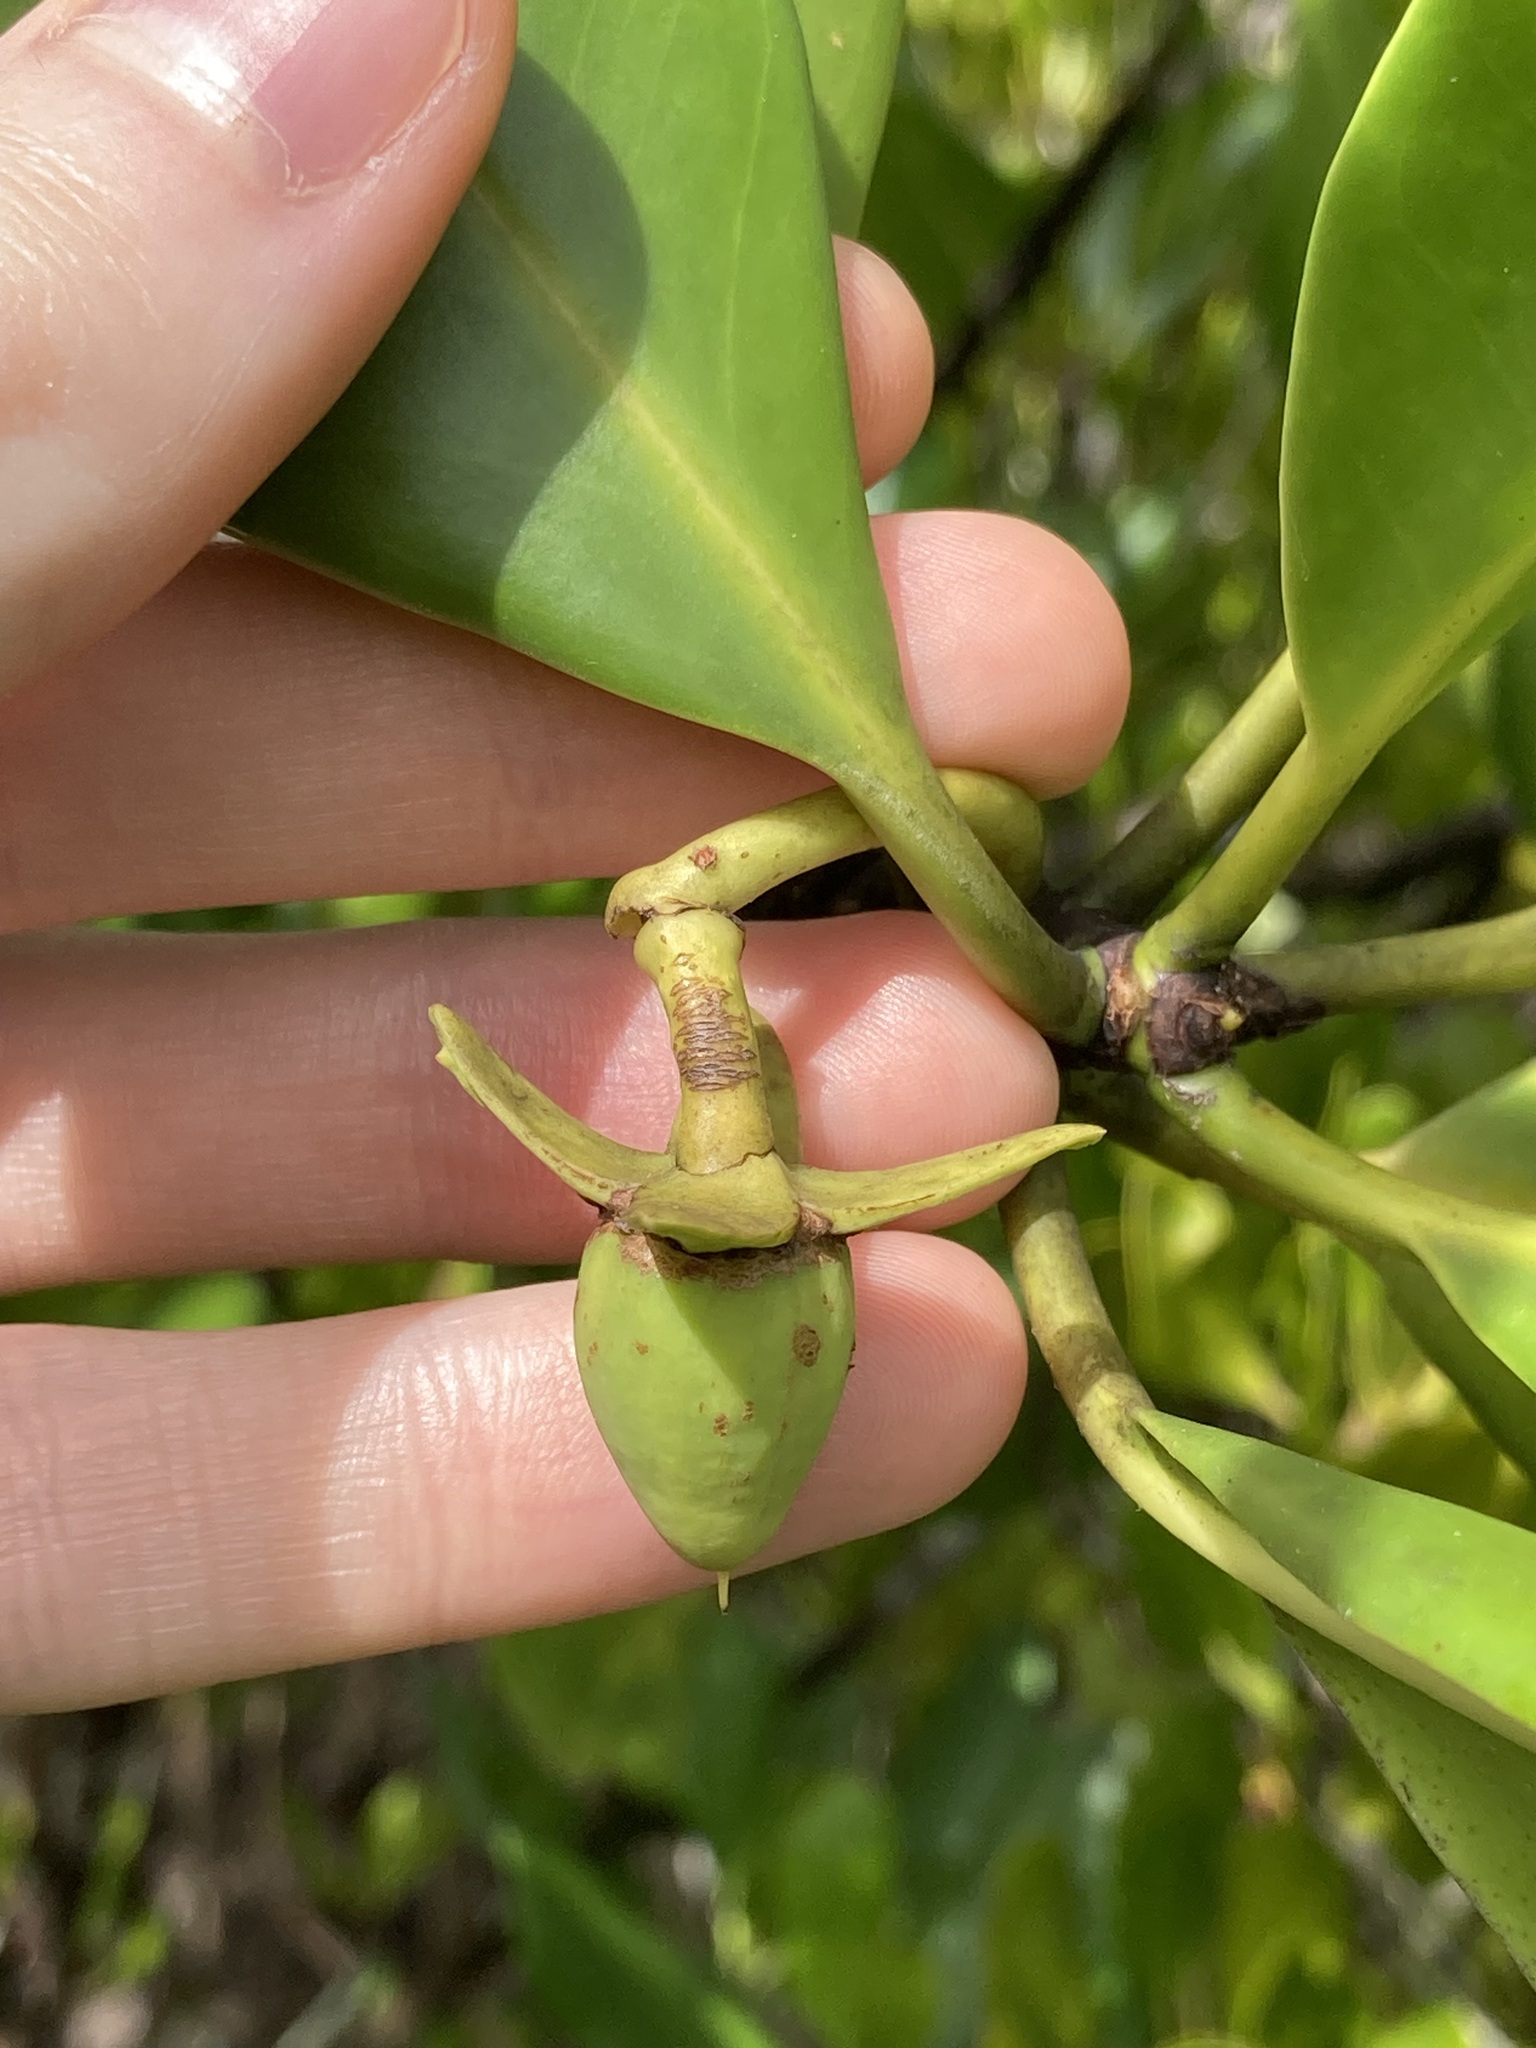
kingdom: Plantae
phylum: Tracheophyta
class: Magnoliopsida
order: Malpighiales
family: Rhizophoraceae
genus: Rhizophora
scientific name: Rhizophora stylosa
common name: Red mangrove
